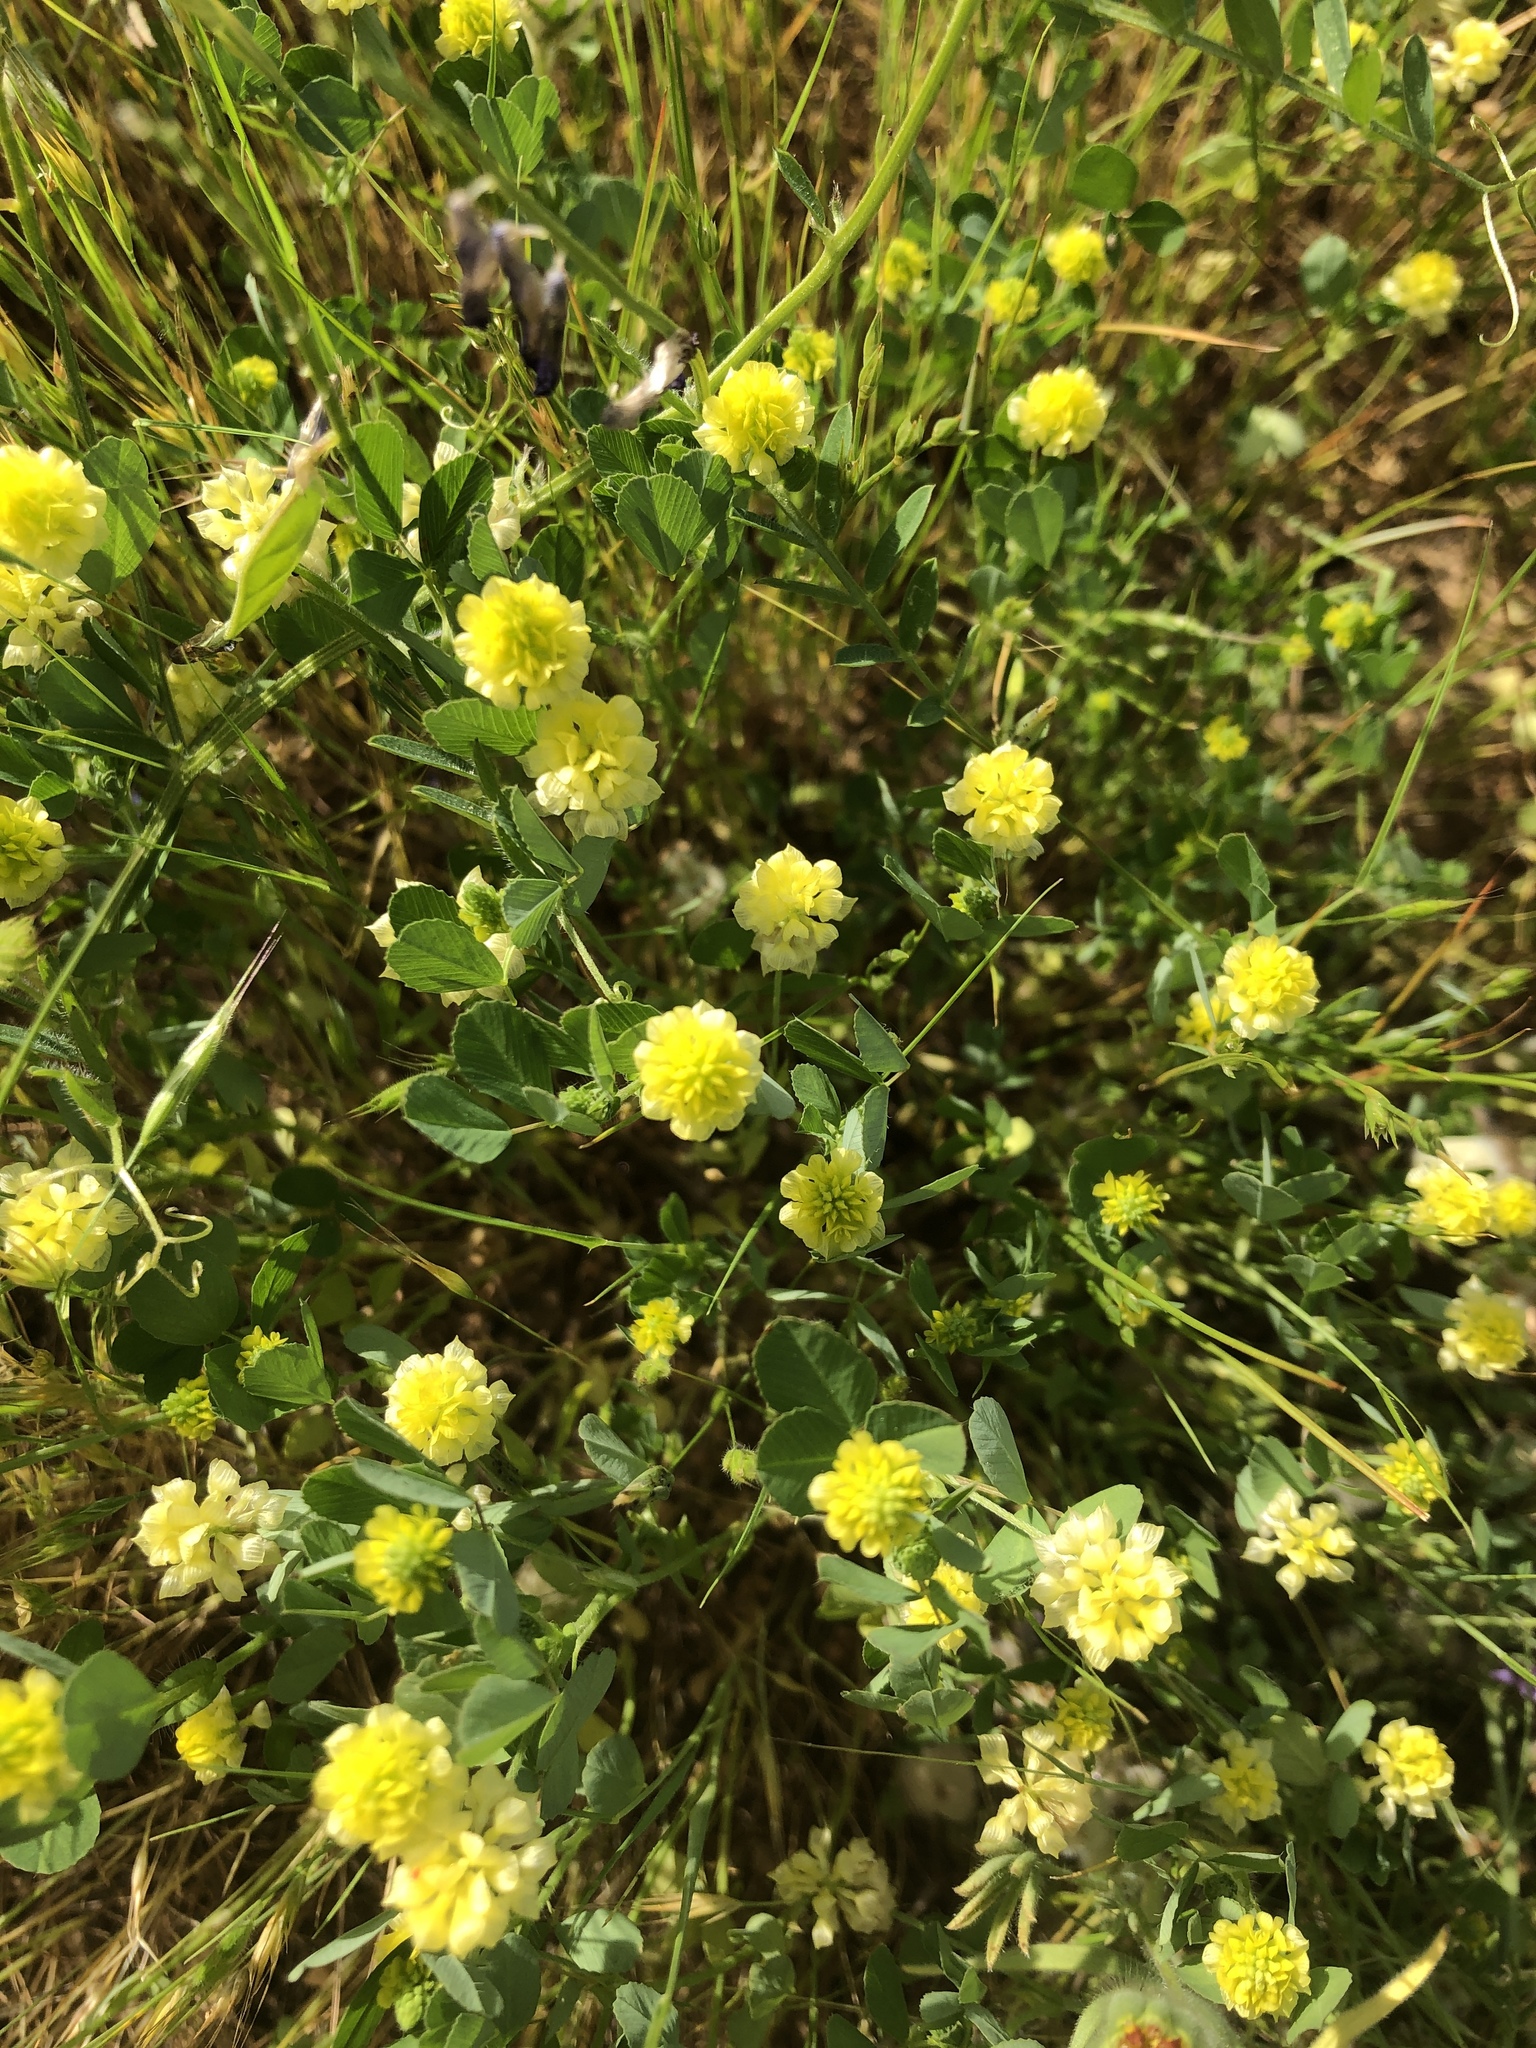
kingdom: Plantae
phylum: Tracheophyta
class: Magnoliopsida
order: Fabales
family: Fabaceae
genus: Trifolium
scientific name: Trifolium campestre
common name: Field clover
